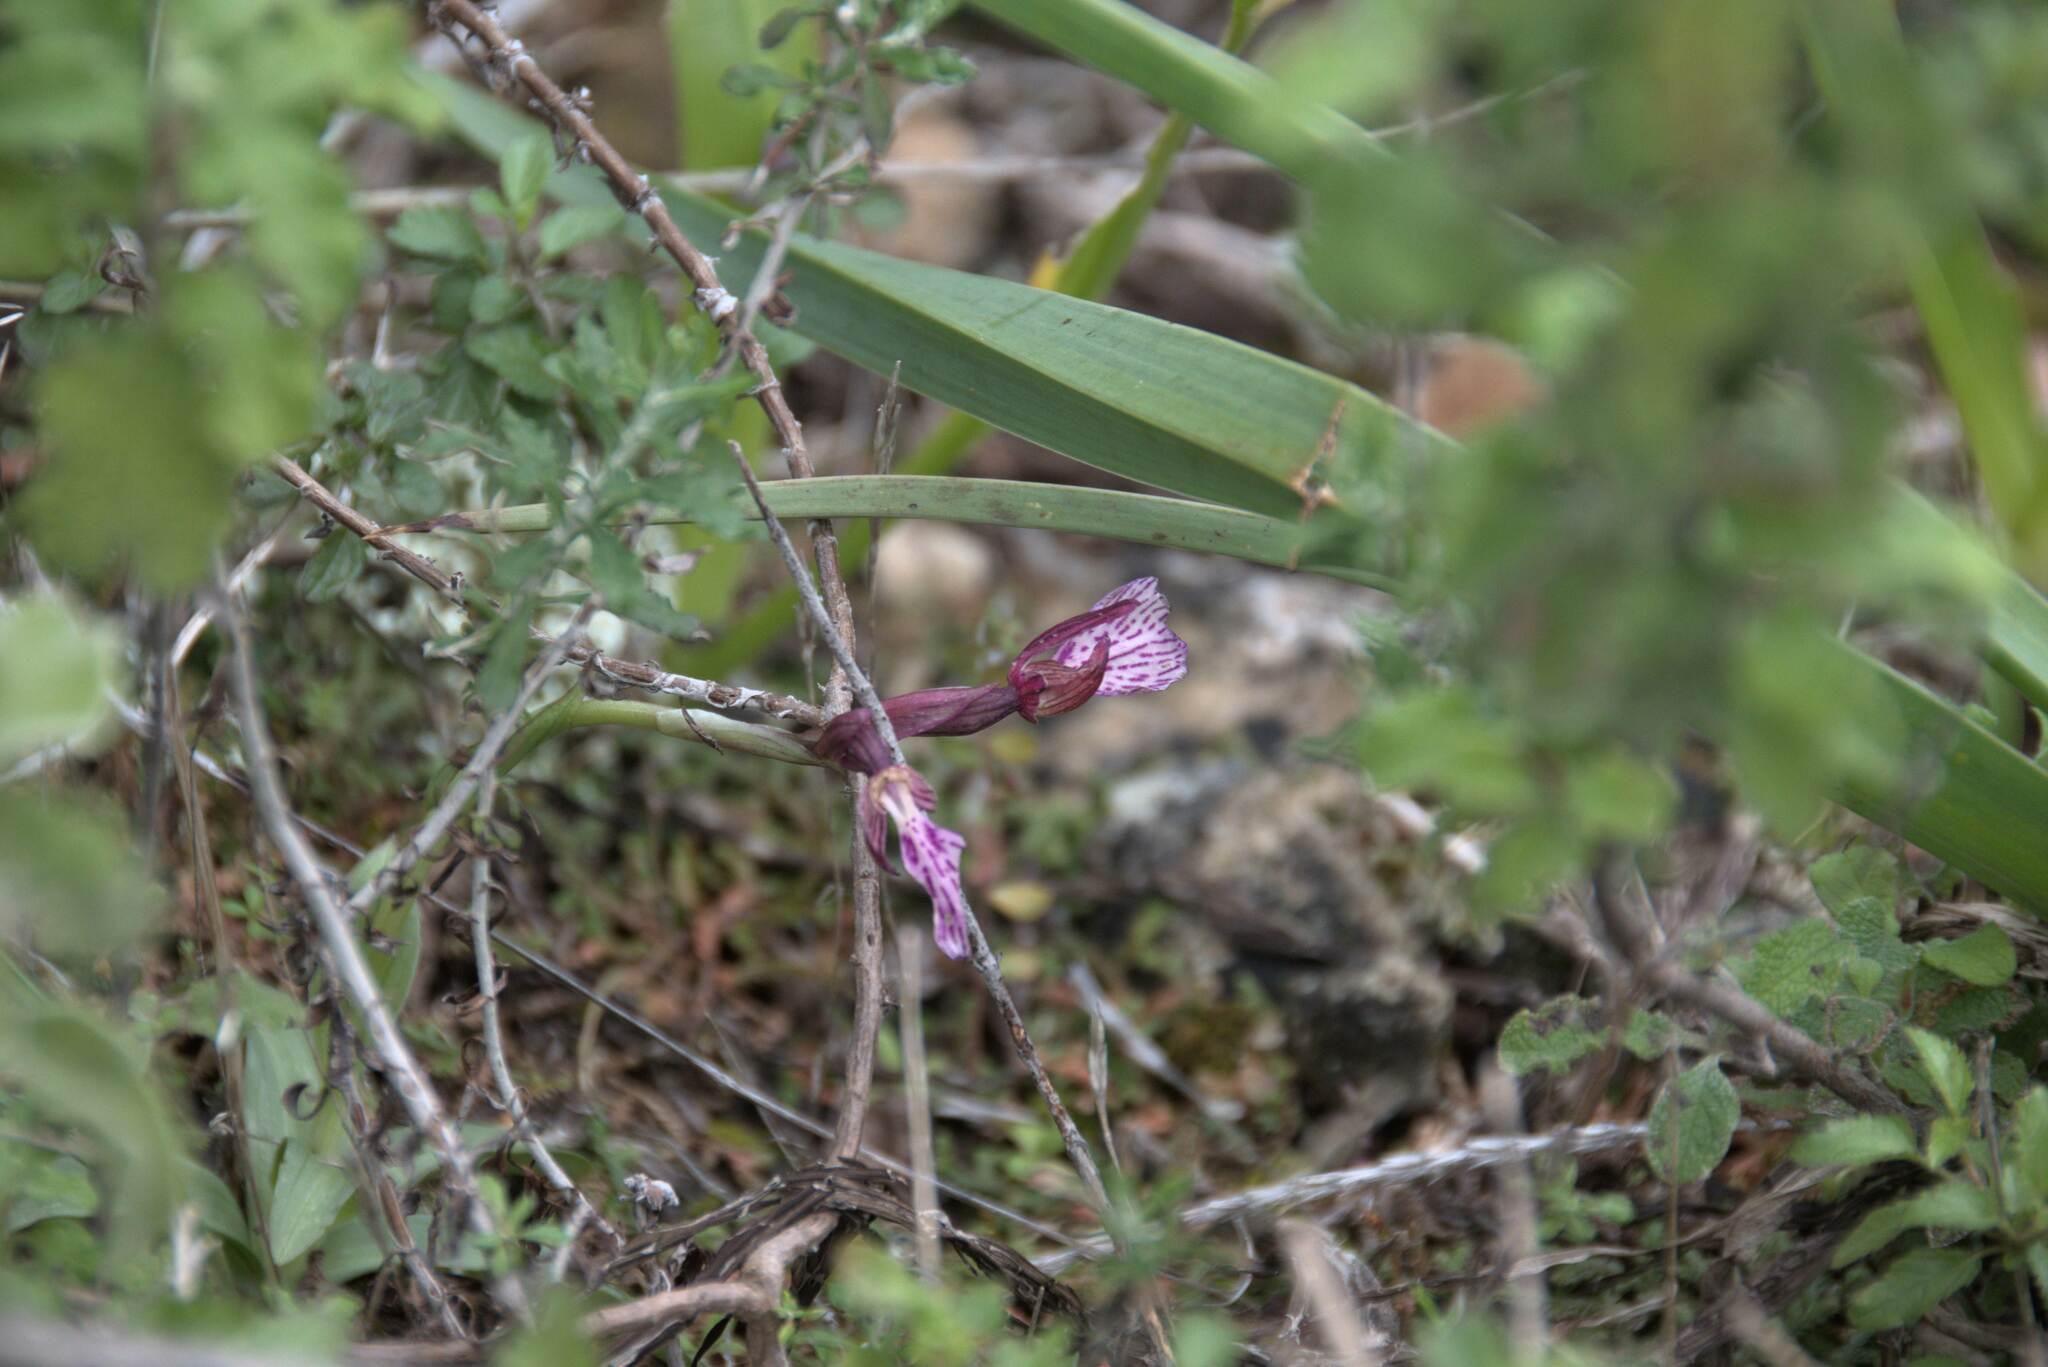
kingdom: Plantae
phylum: Tracheophyta
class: Liliopsida
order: Asparagales
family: Orchidaceae
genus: Anacamptis
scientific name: Anacamptis papilionacea
